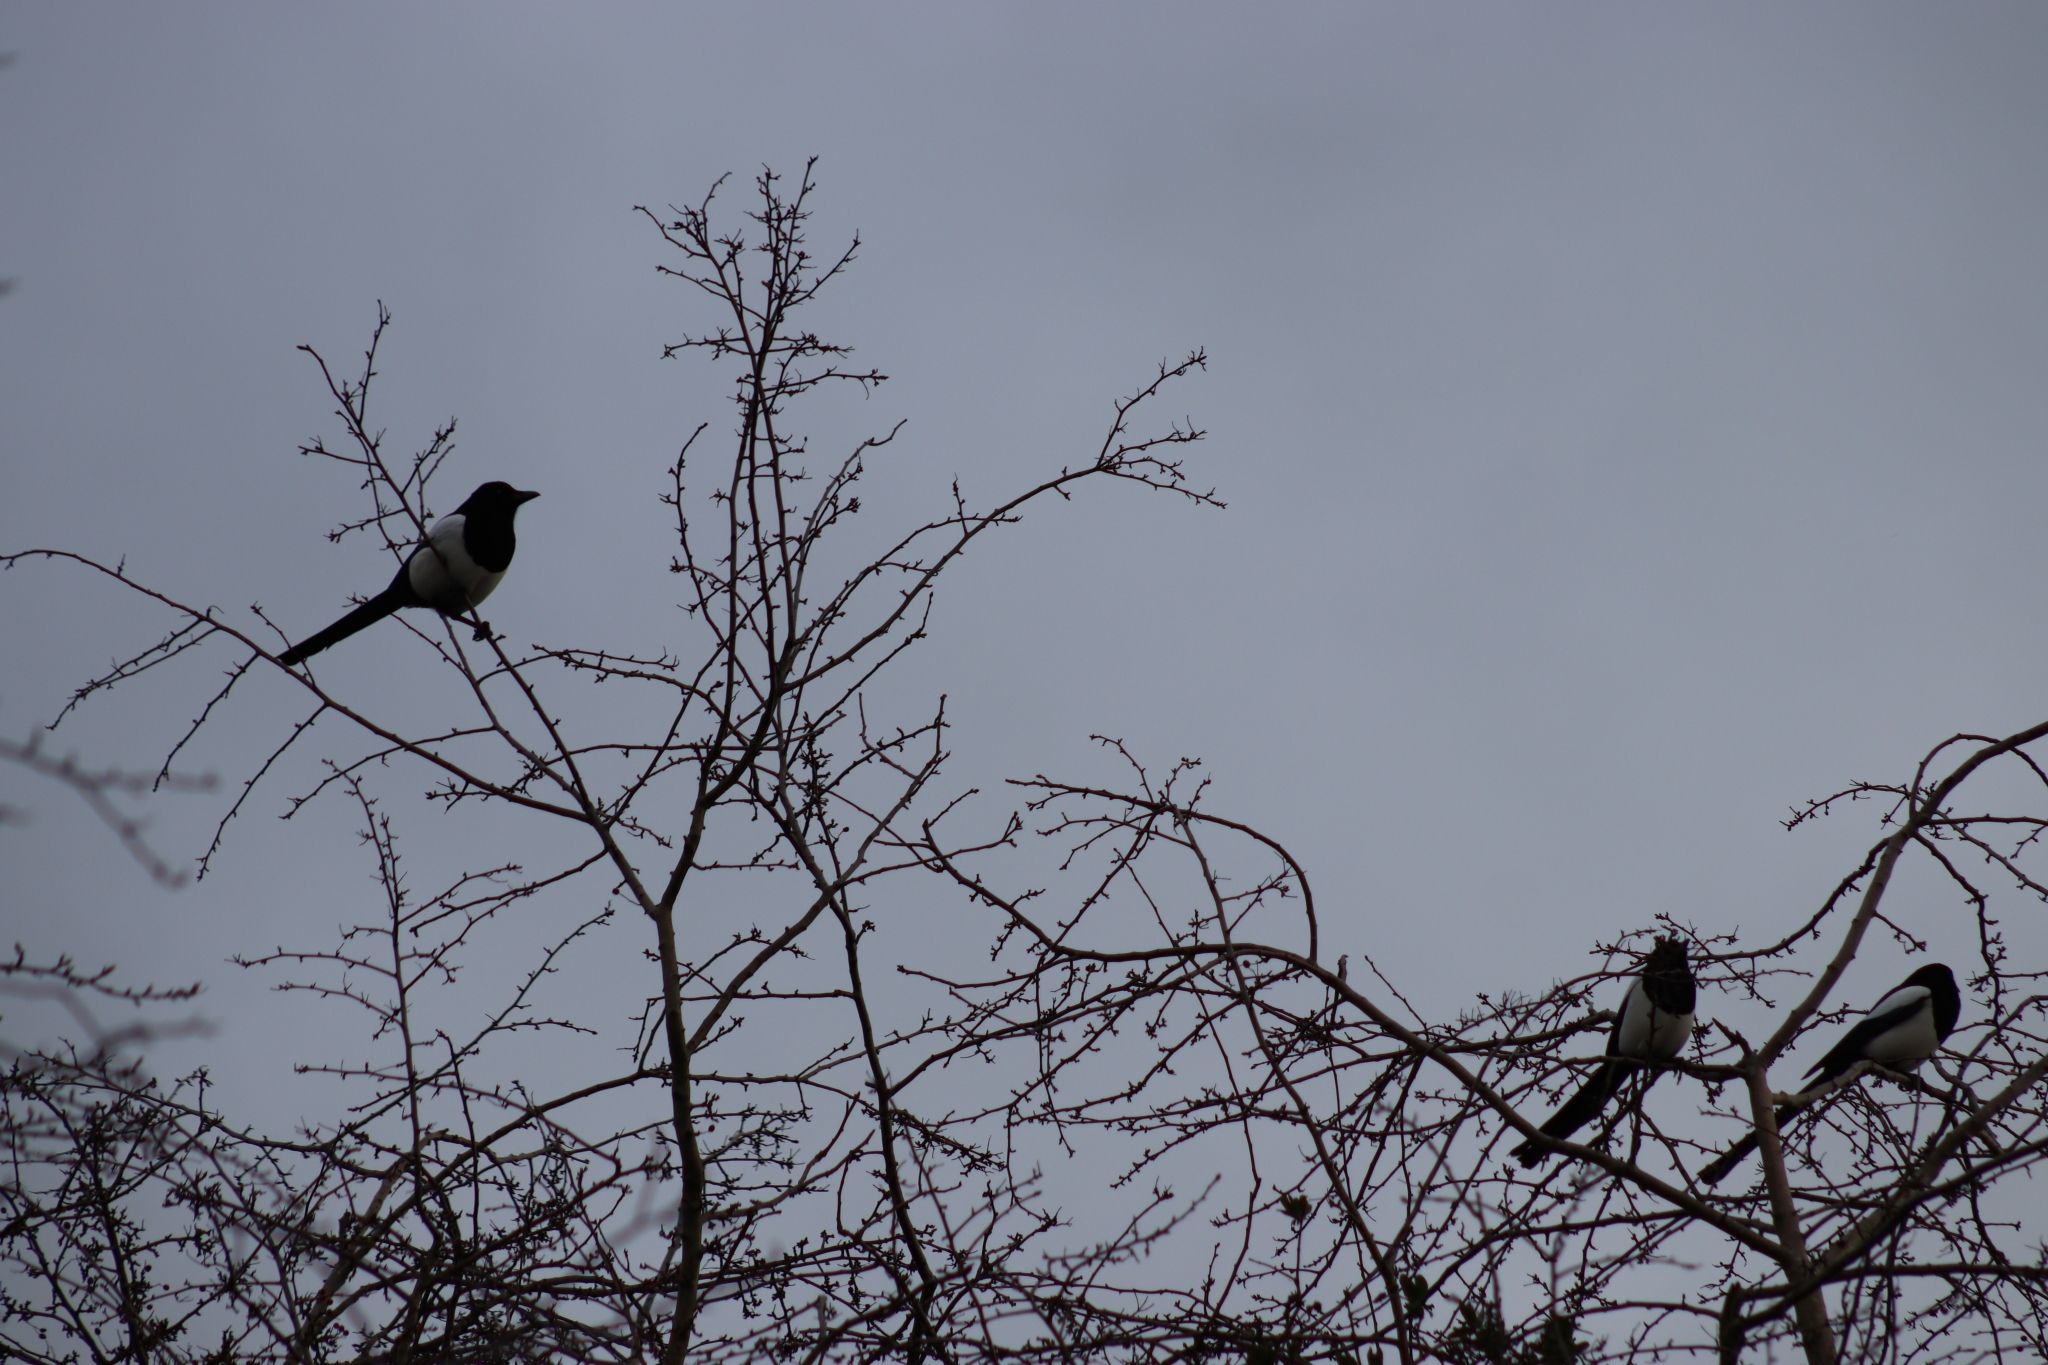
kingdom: Animalia
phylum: Chordata
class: Aves
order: Passeriformes
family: Corvidae
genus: Pica
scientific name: Pica pica
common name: Eurasian magpie
